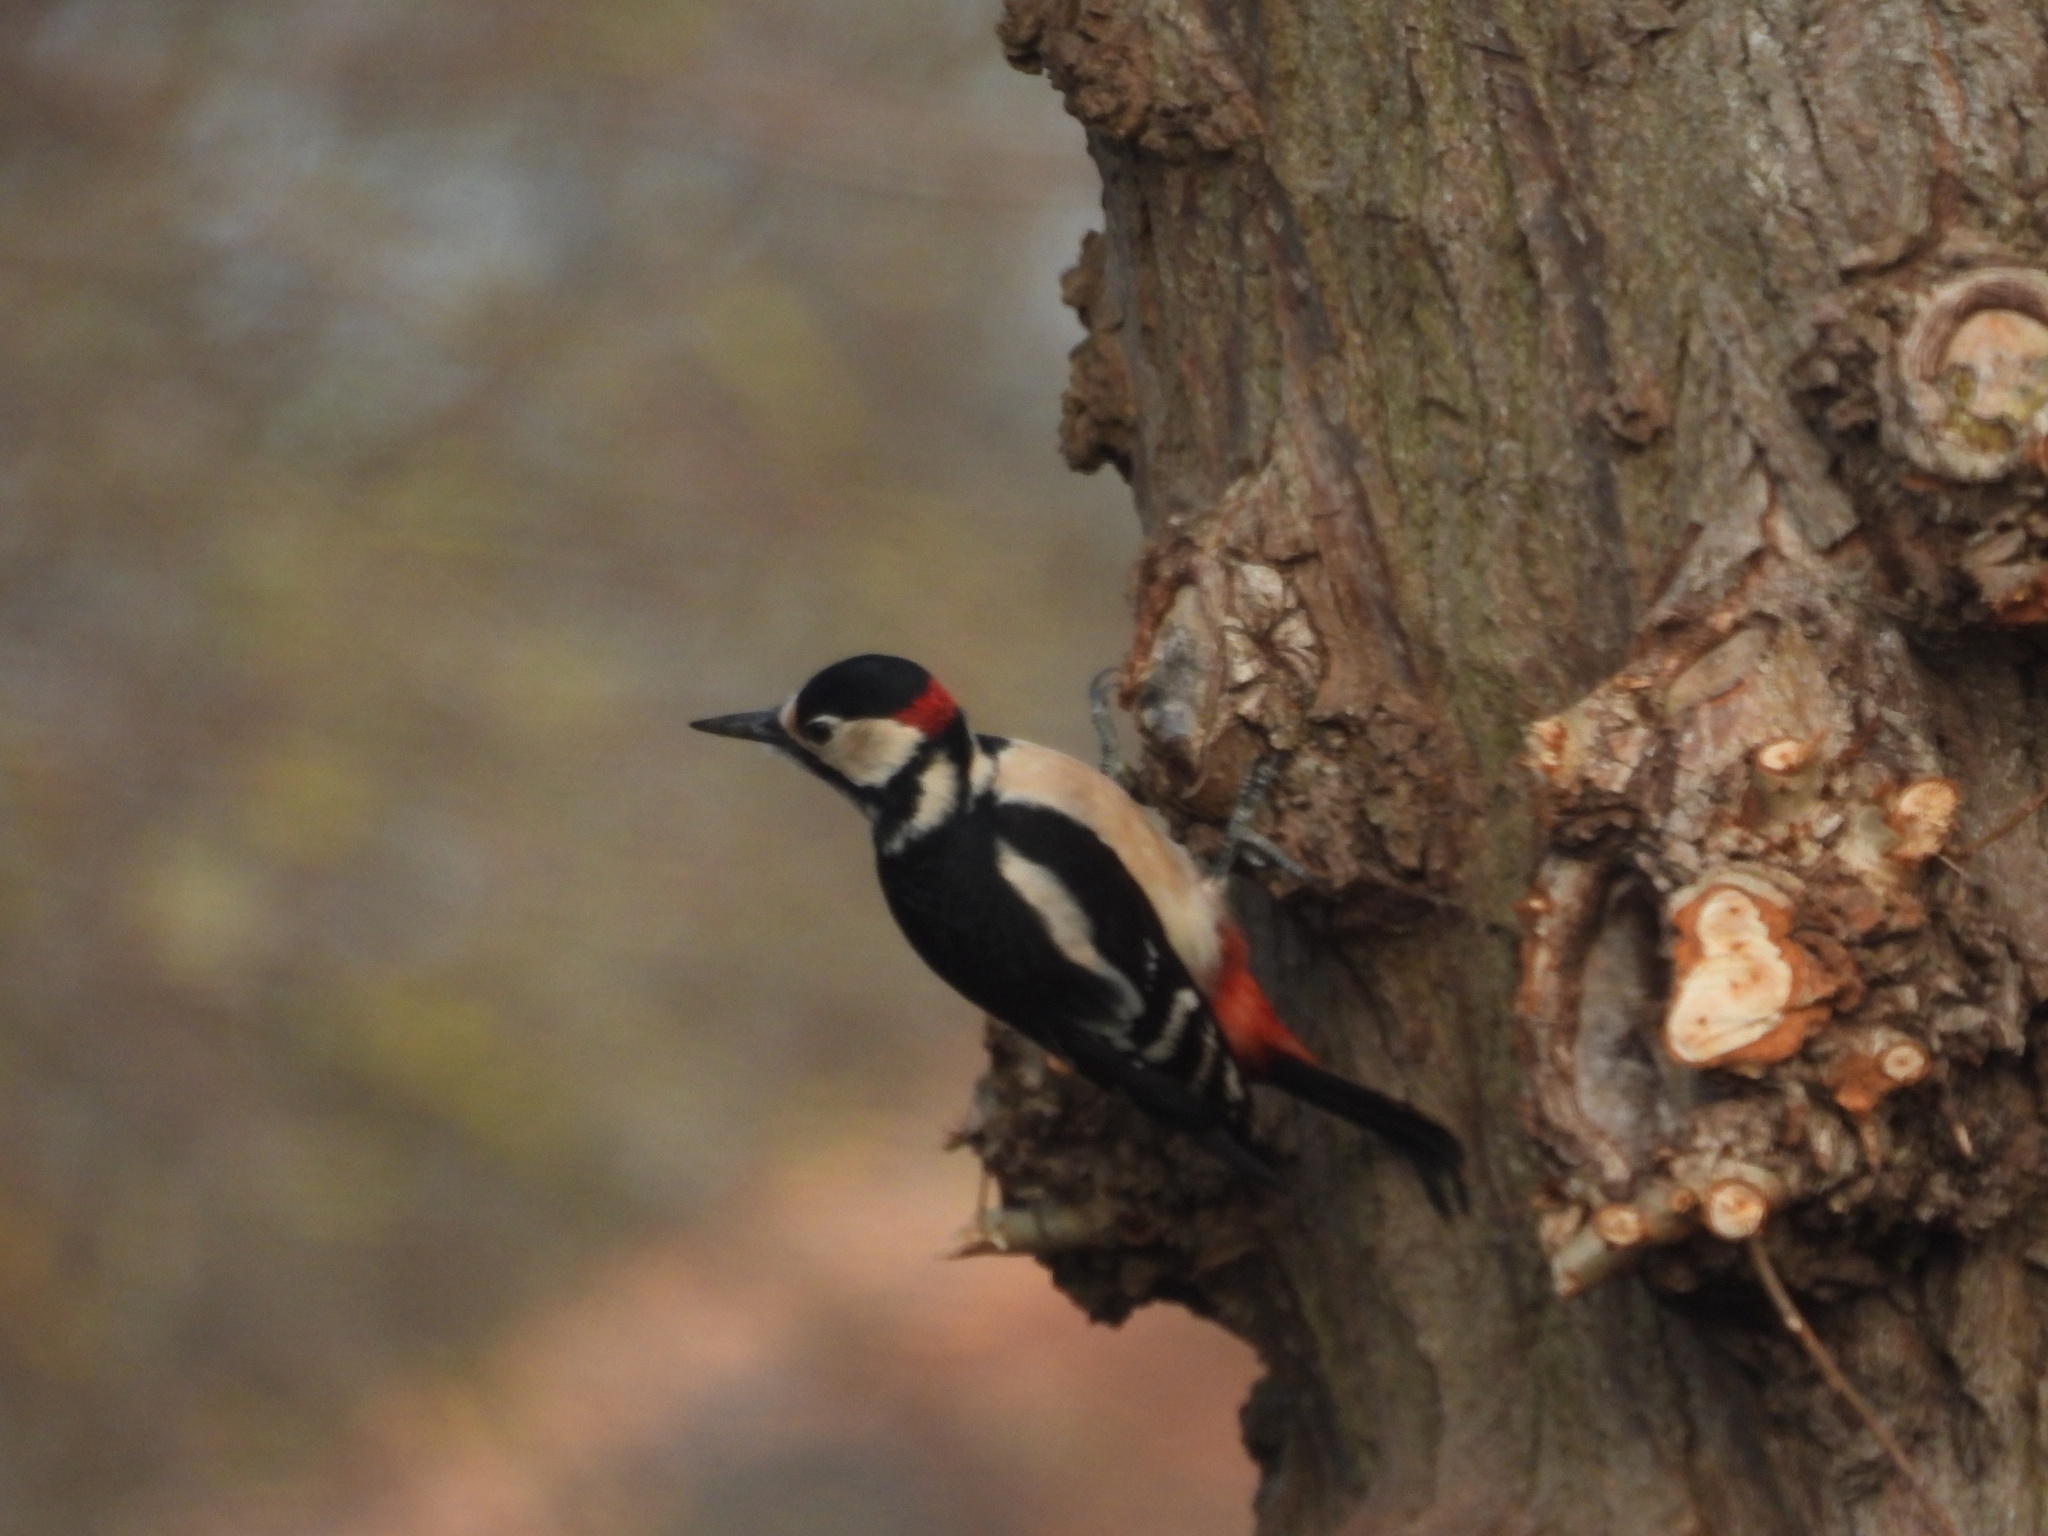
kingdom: Animalia
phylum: Chordata
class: Aves
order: Piciformes
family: Picidae
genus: Dendrocopos
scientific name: Dendrocopos major
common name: Great spotted woodpecker
